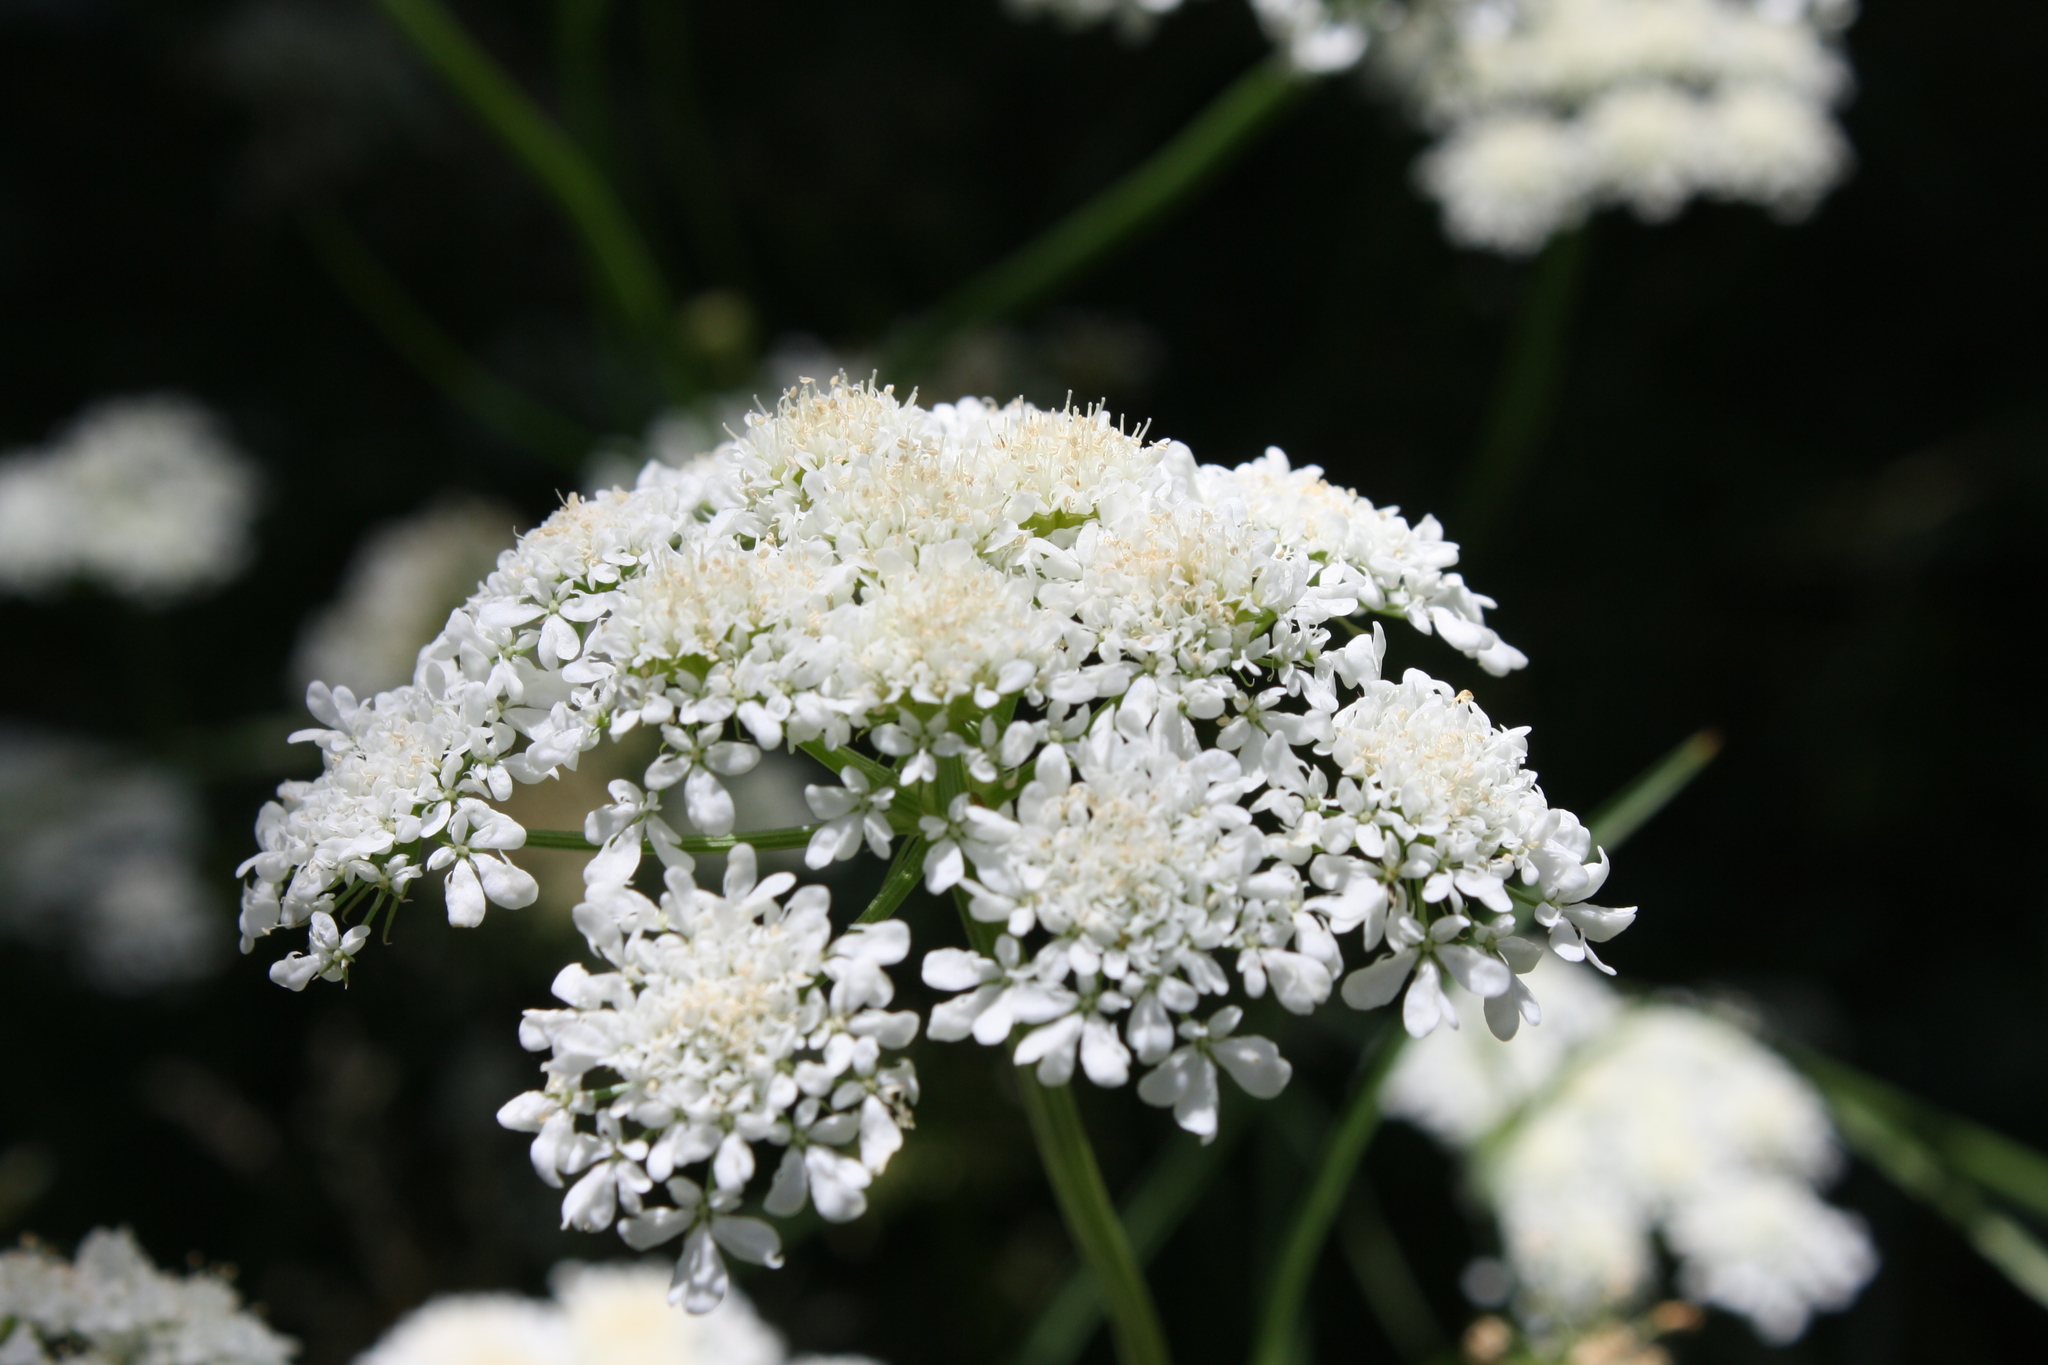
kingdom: Plantae
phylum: Tracheophyta
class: Magnoliopsida
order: Apiales
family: Apiaceae
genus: Oenanthe
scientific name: Oenanthe pimpinelloides
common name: Corky-fruited water-dropwort
